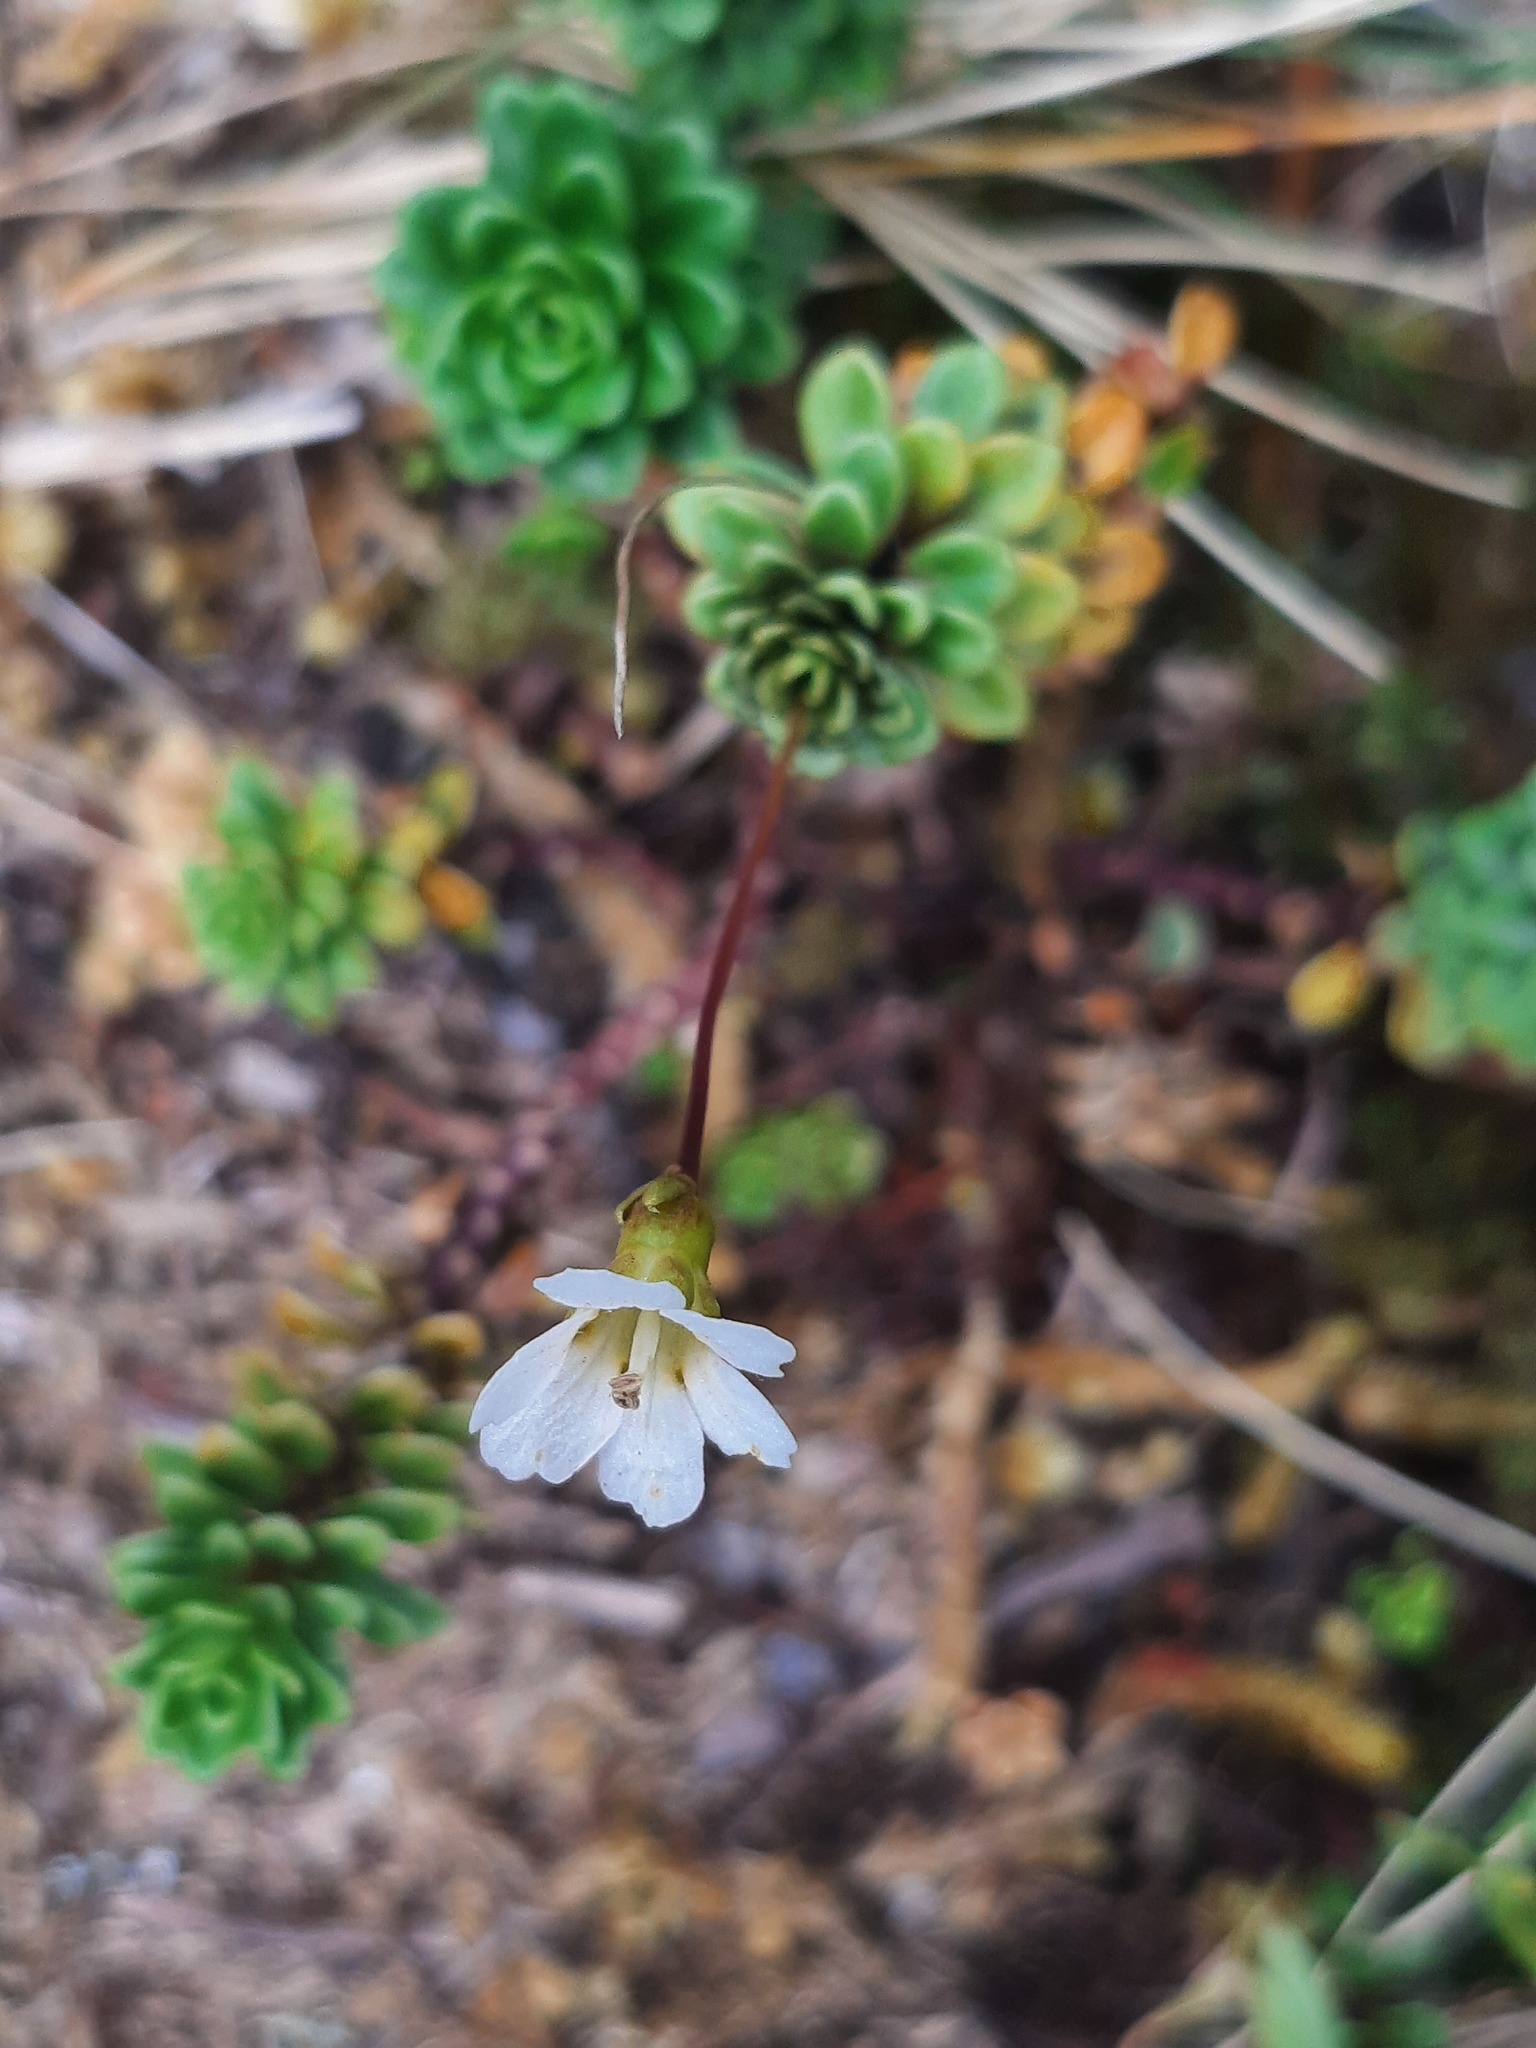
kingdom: Plantae
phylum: Tracheophyta
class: Magnoliopsida
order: Asterales
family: Stylidiaceae
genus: Forstera
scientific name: Forstera tenella
